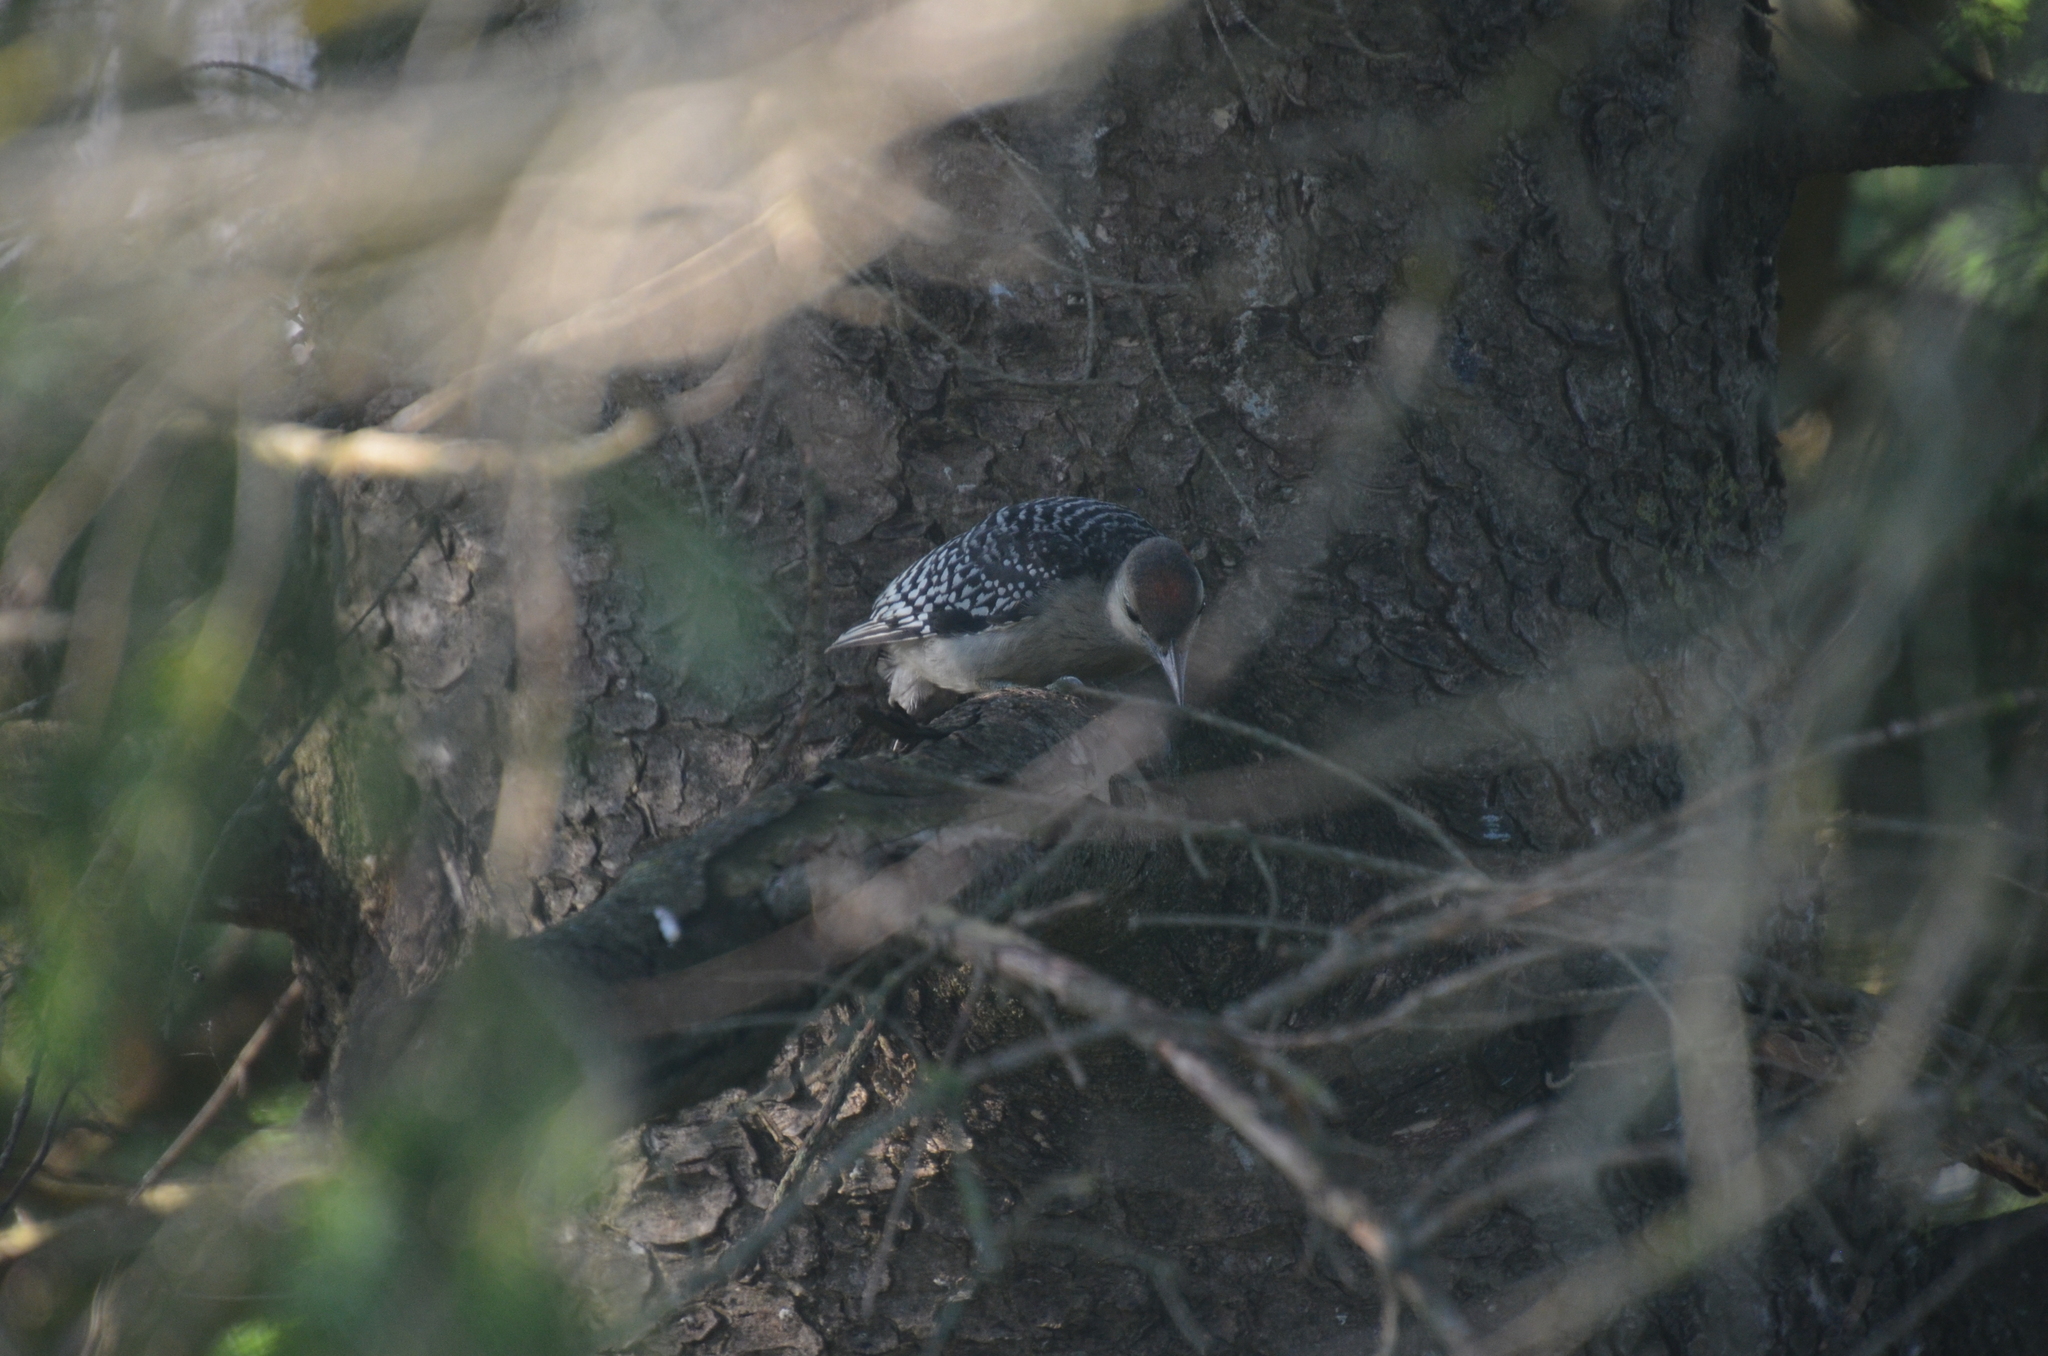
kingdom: Animalia
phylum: Chordata
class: Aves
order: Piciformes
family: Picidae
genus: Melanerpes
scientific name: Melanerpes carolinus
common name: Red-bellied woodpecker
